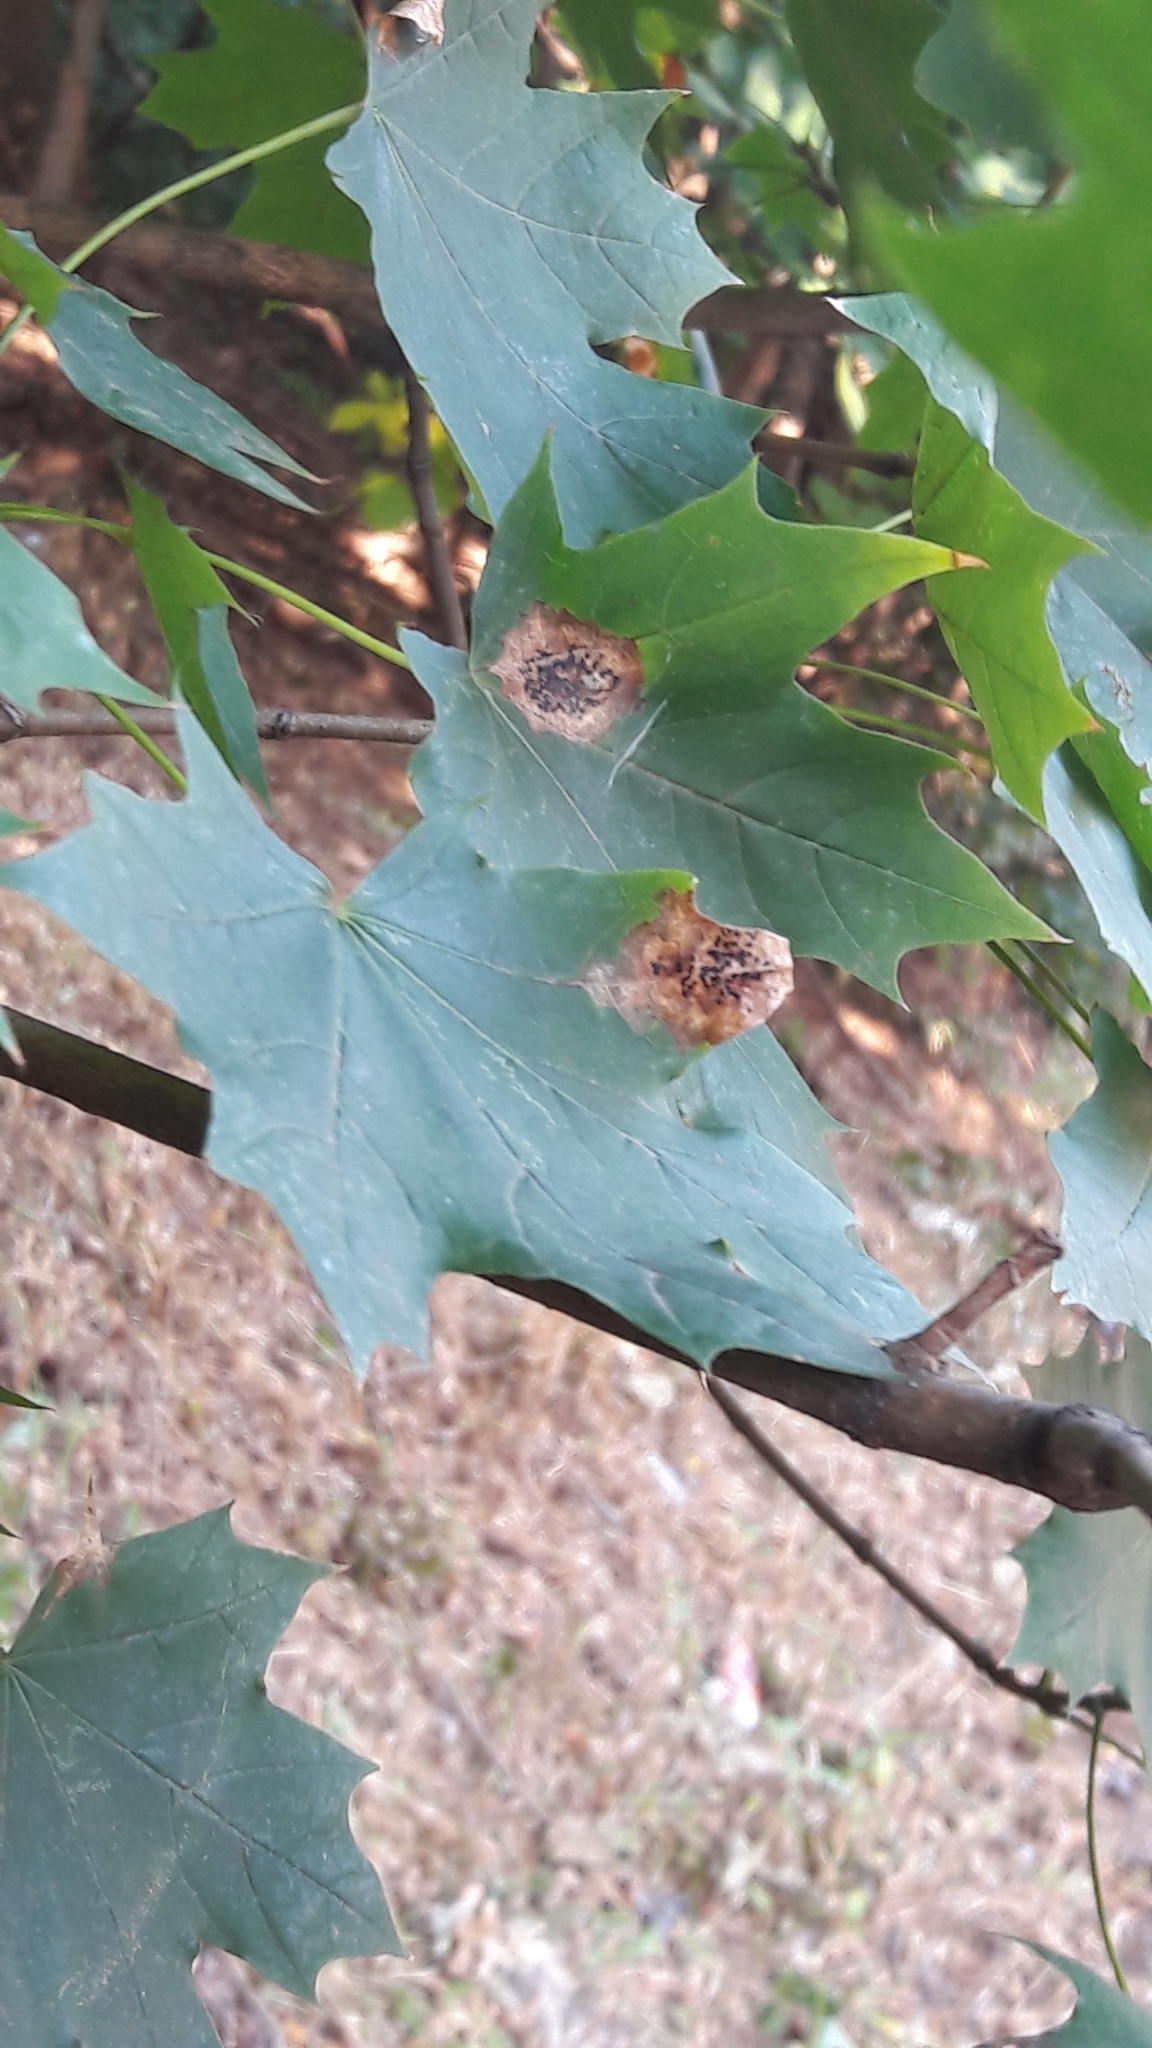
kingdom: Fungi
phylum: Ascomycota
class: Leotiomycetes
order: Rhytismatales
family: Rhytismataceae
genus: Rhytisma
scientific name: Rhytisma acerinum
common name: European tar spot
